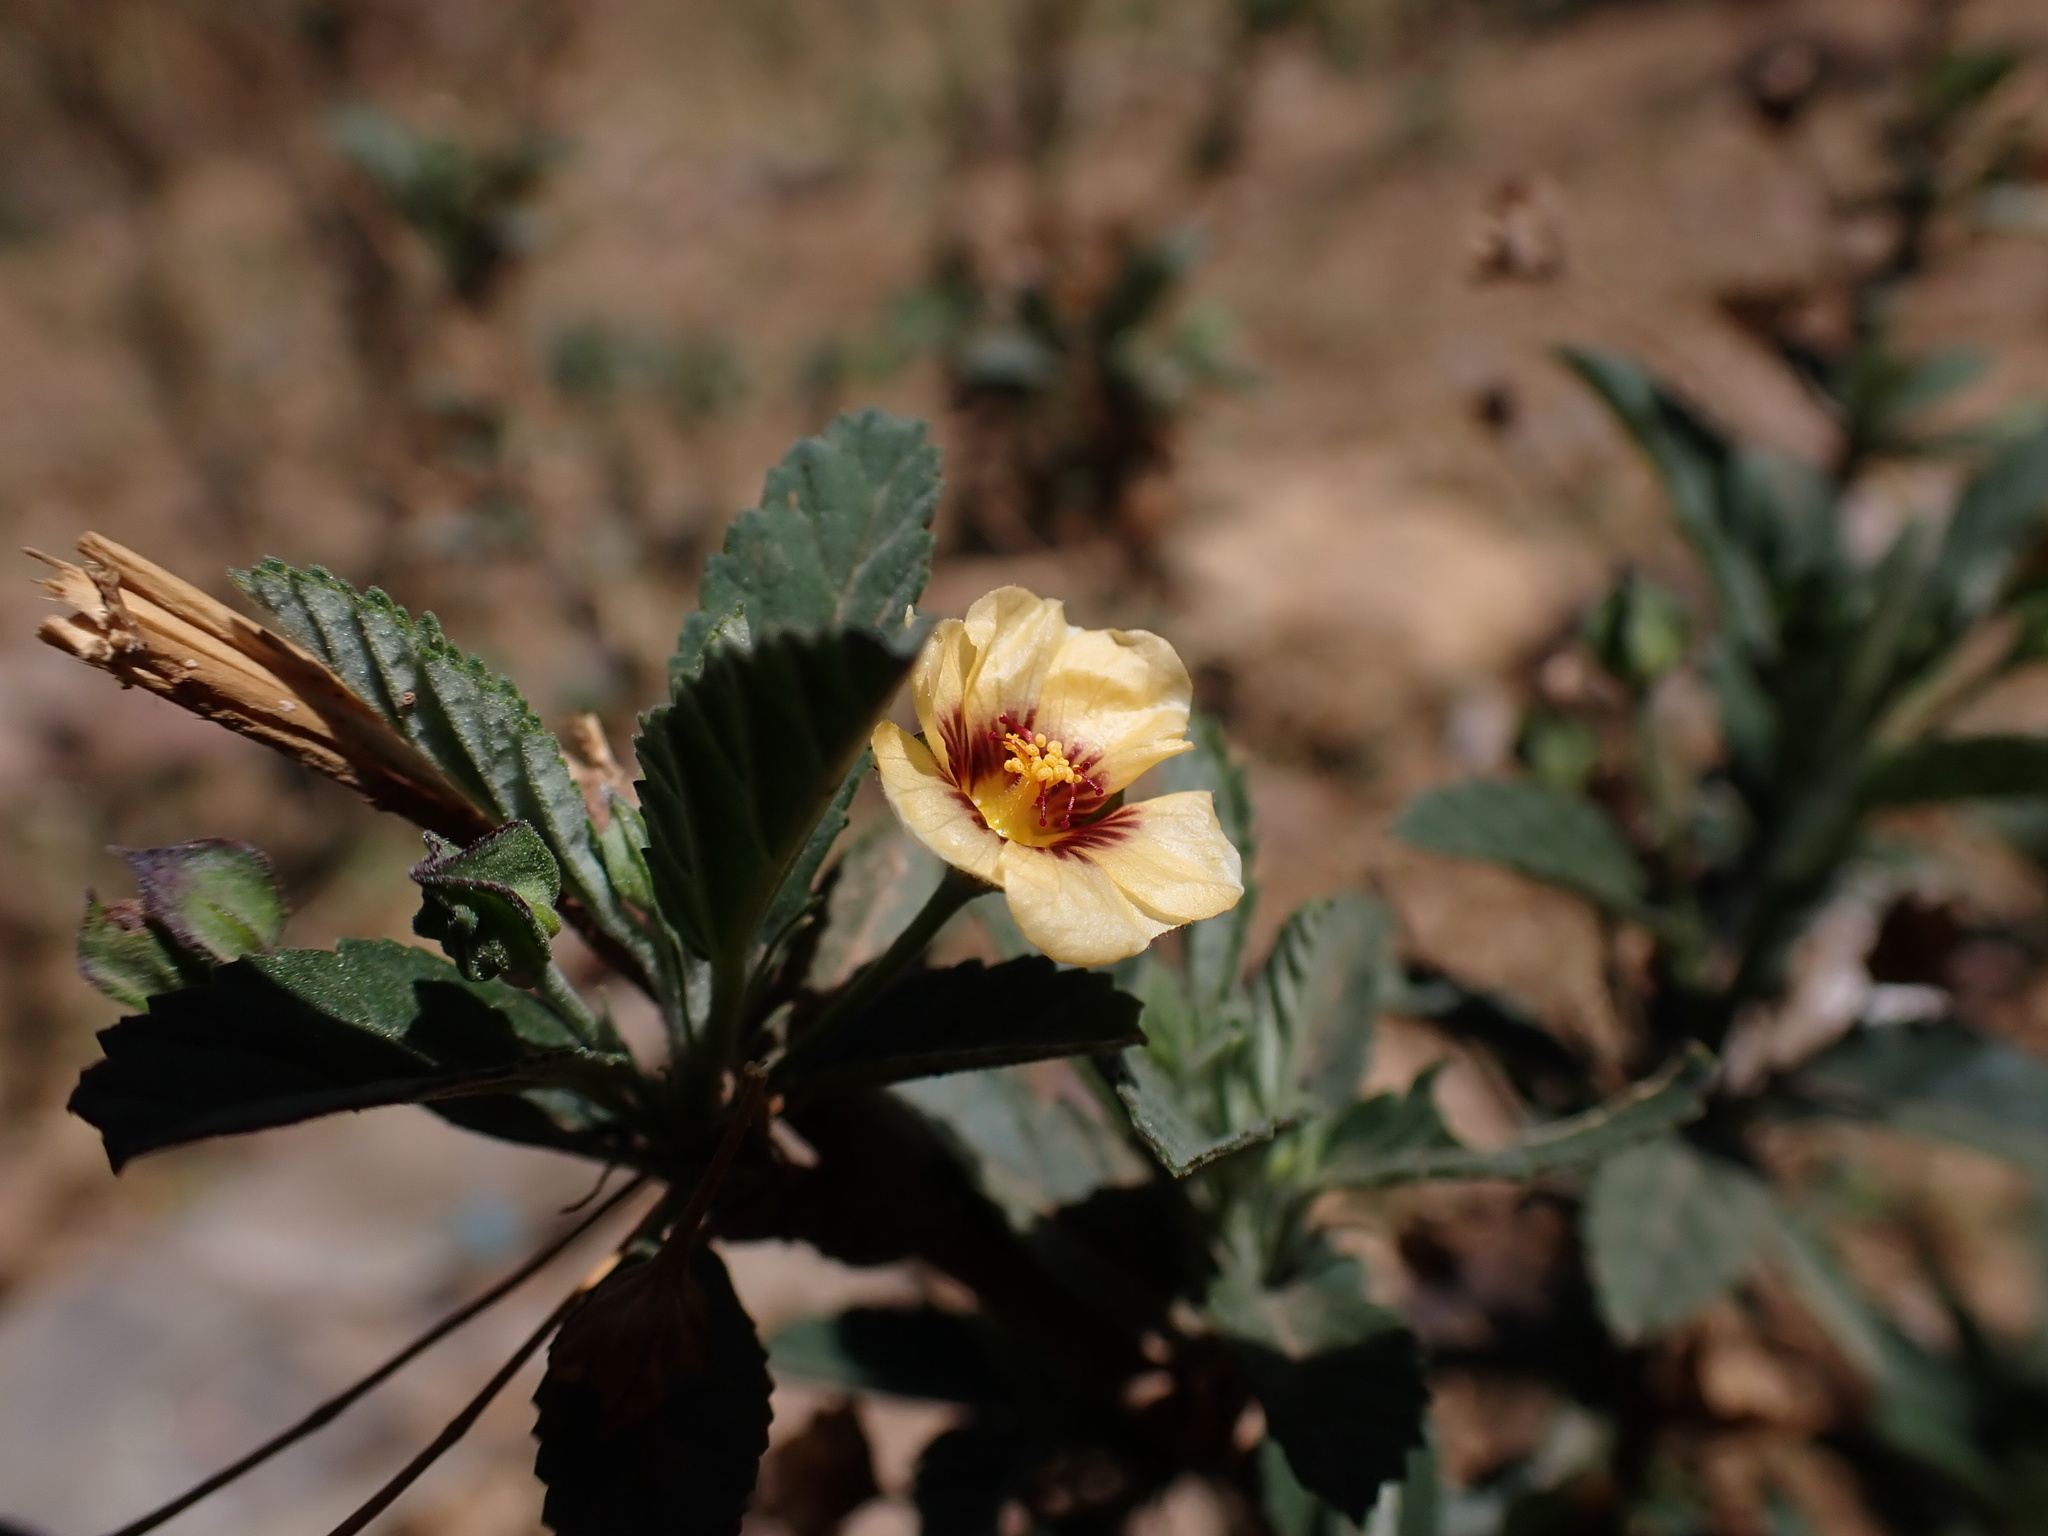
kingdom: Plantae
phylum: Tracheophyta
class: Magnoliopsida
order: Malvales
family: Malvaceae
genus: Sida
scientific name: Sida poeppigiana
